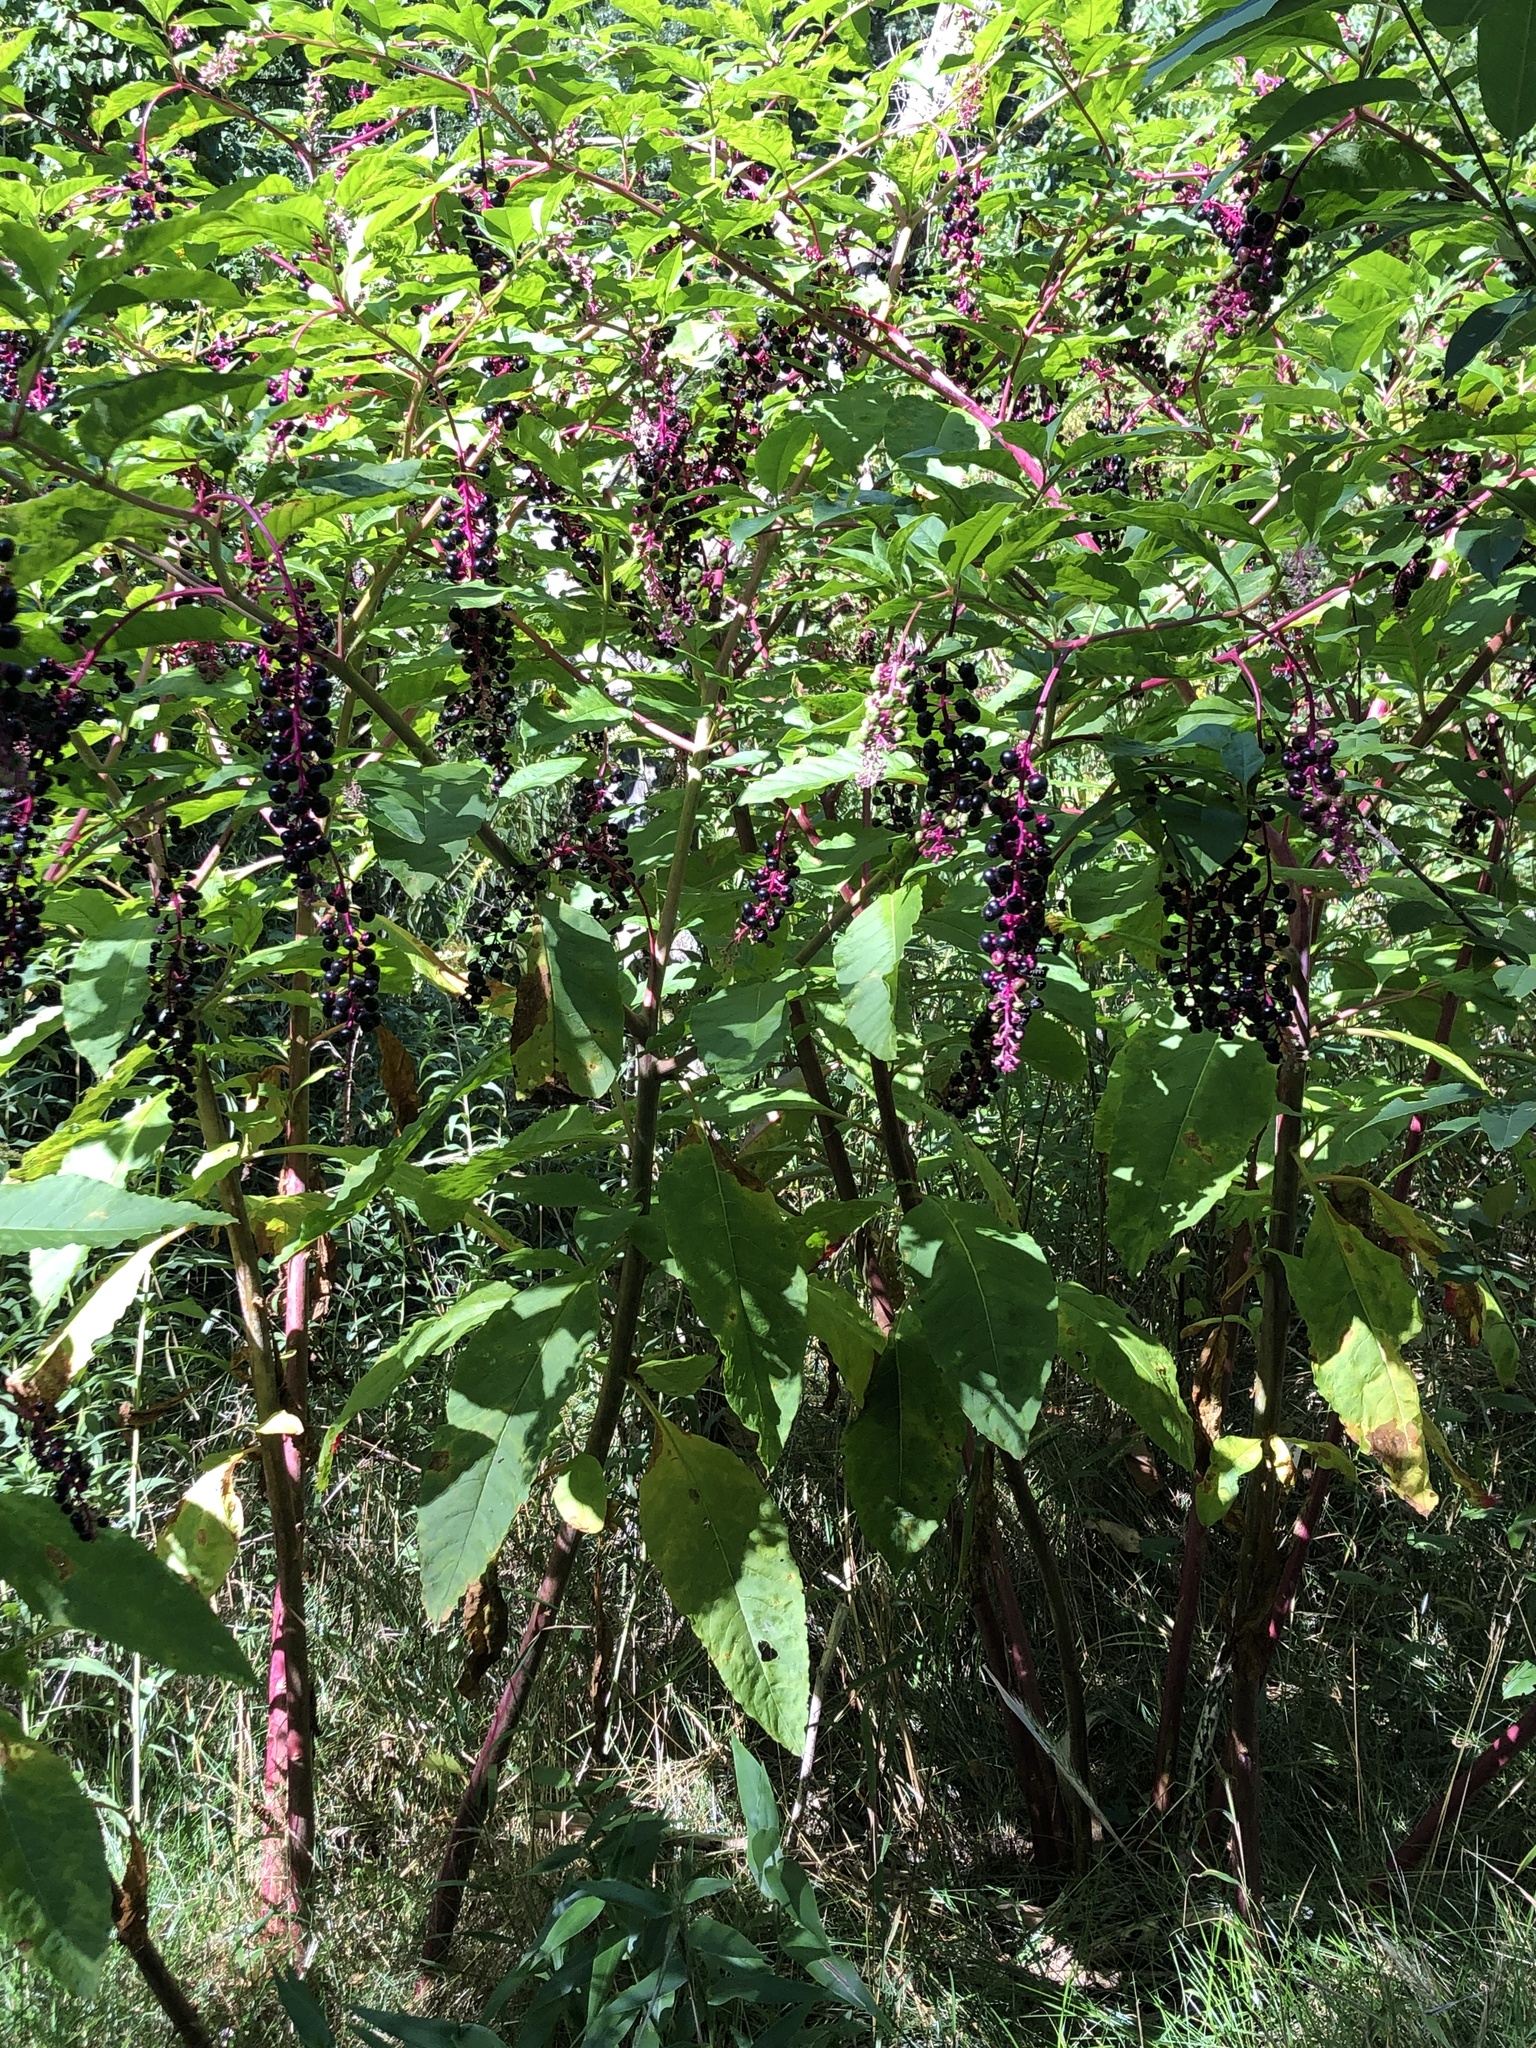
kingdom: Plantae
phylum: Tracheophyta
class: Magnoliopsida
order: Caryophyllales
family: Phytolaccaceae
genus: Phytolacca
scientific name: Phytolacca americana
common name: American pokeweed
